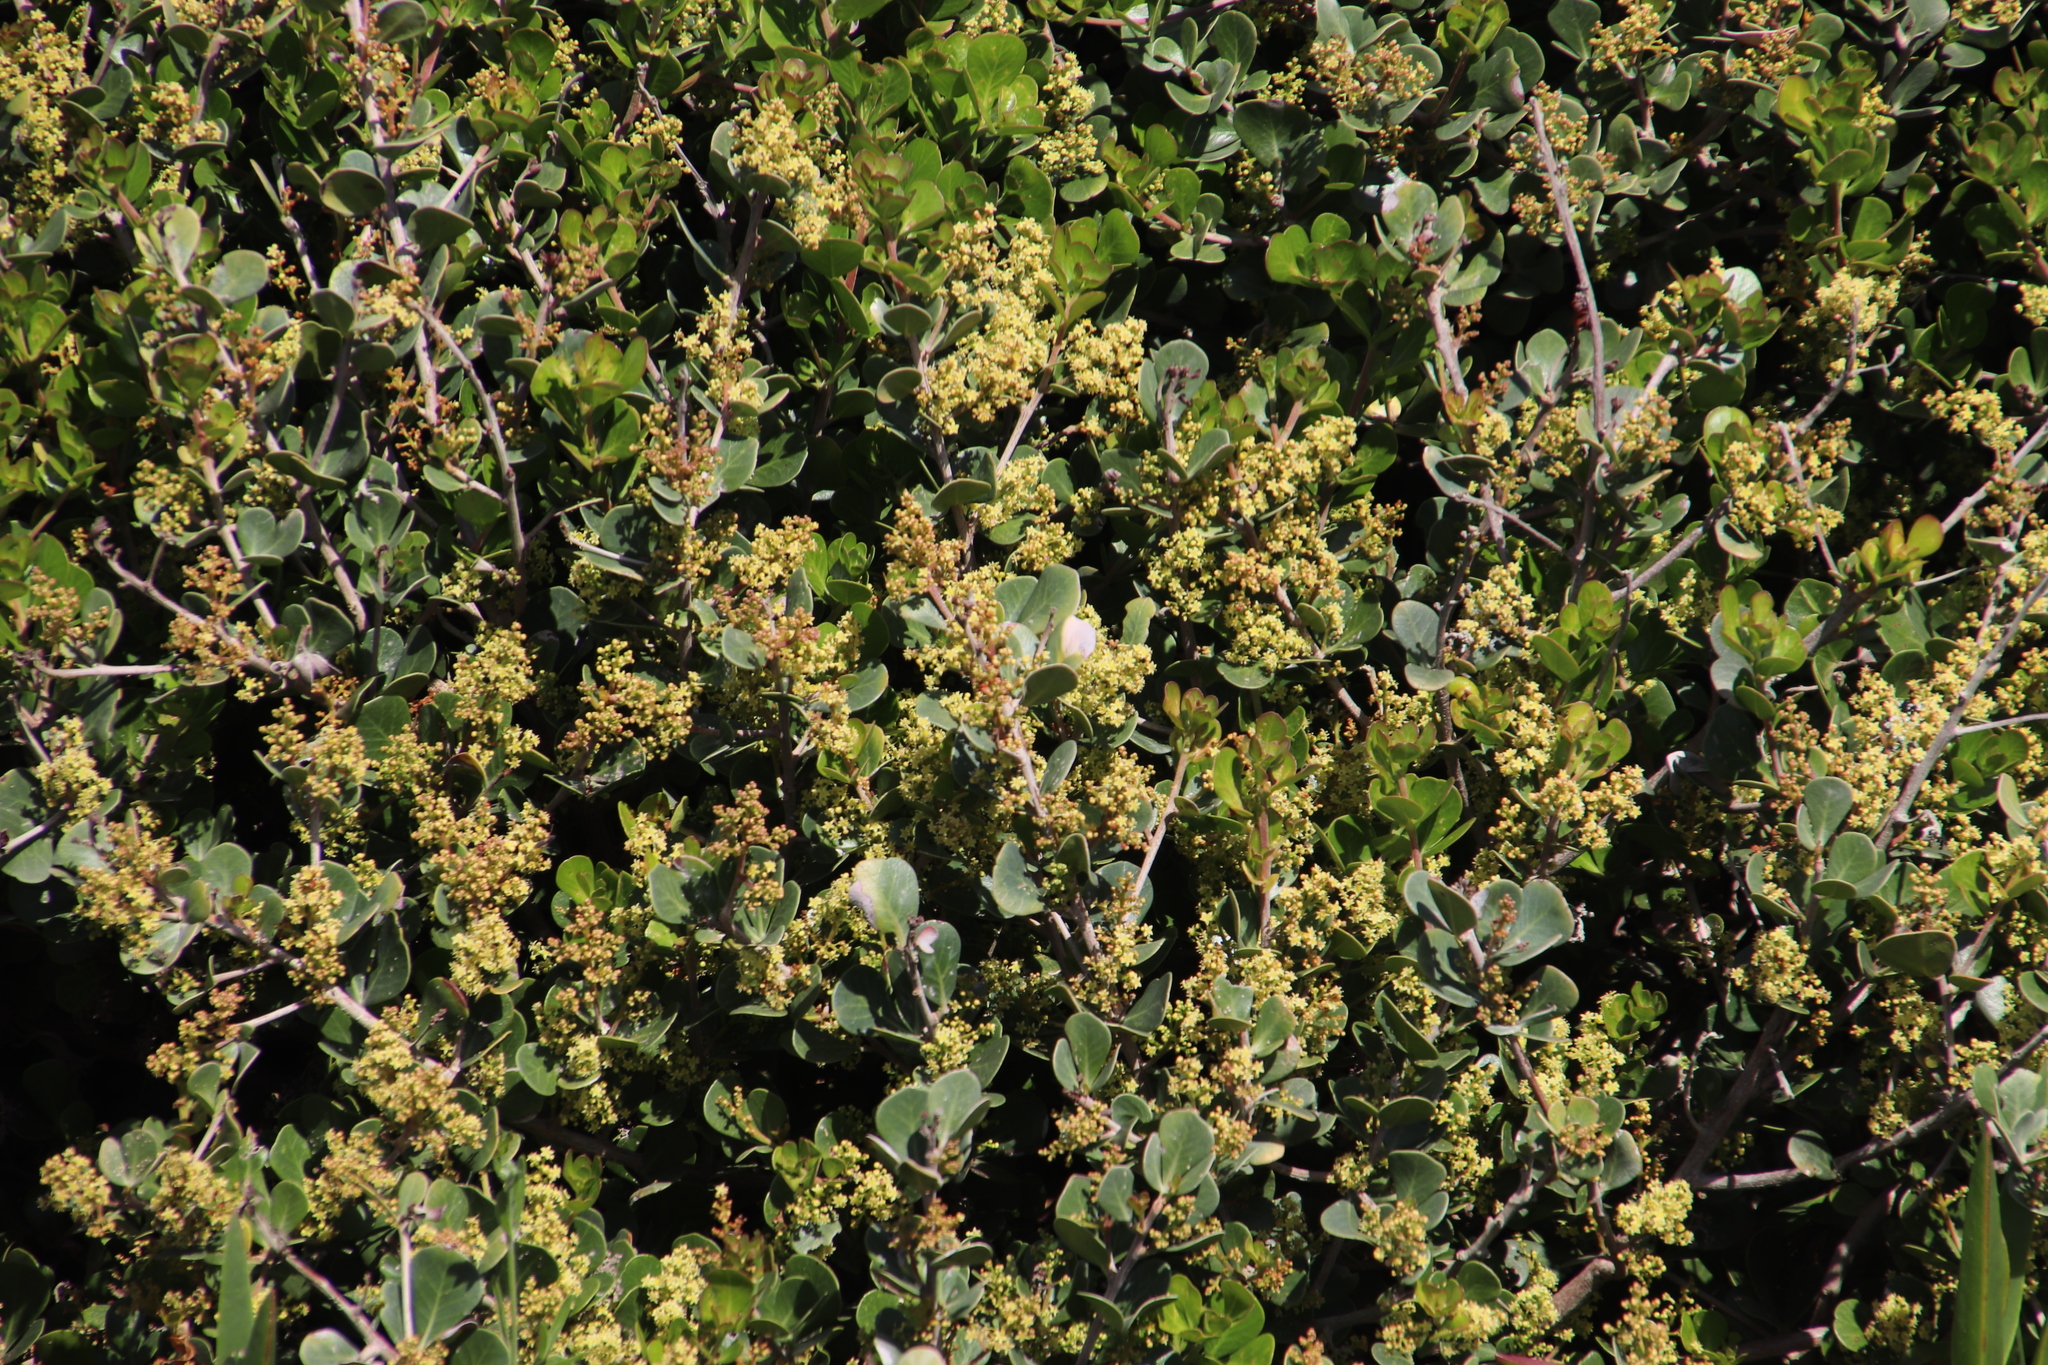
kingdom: Plantae
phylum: Tracheophyta
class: Magnoliopsida
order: Sapindales
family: Anacardiaceae
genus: Searsia
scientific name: Searsia lucida
